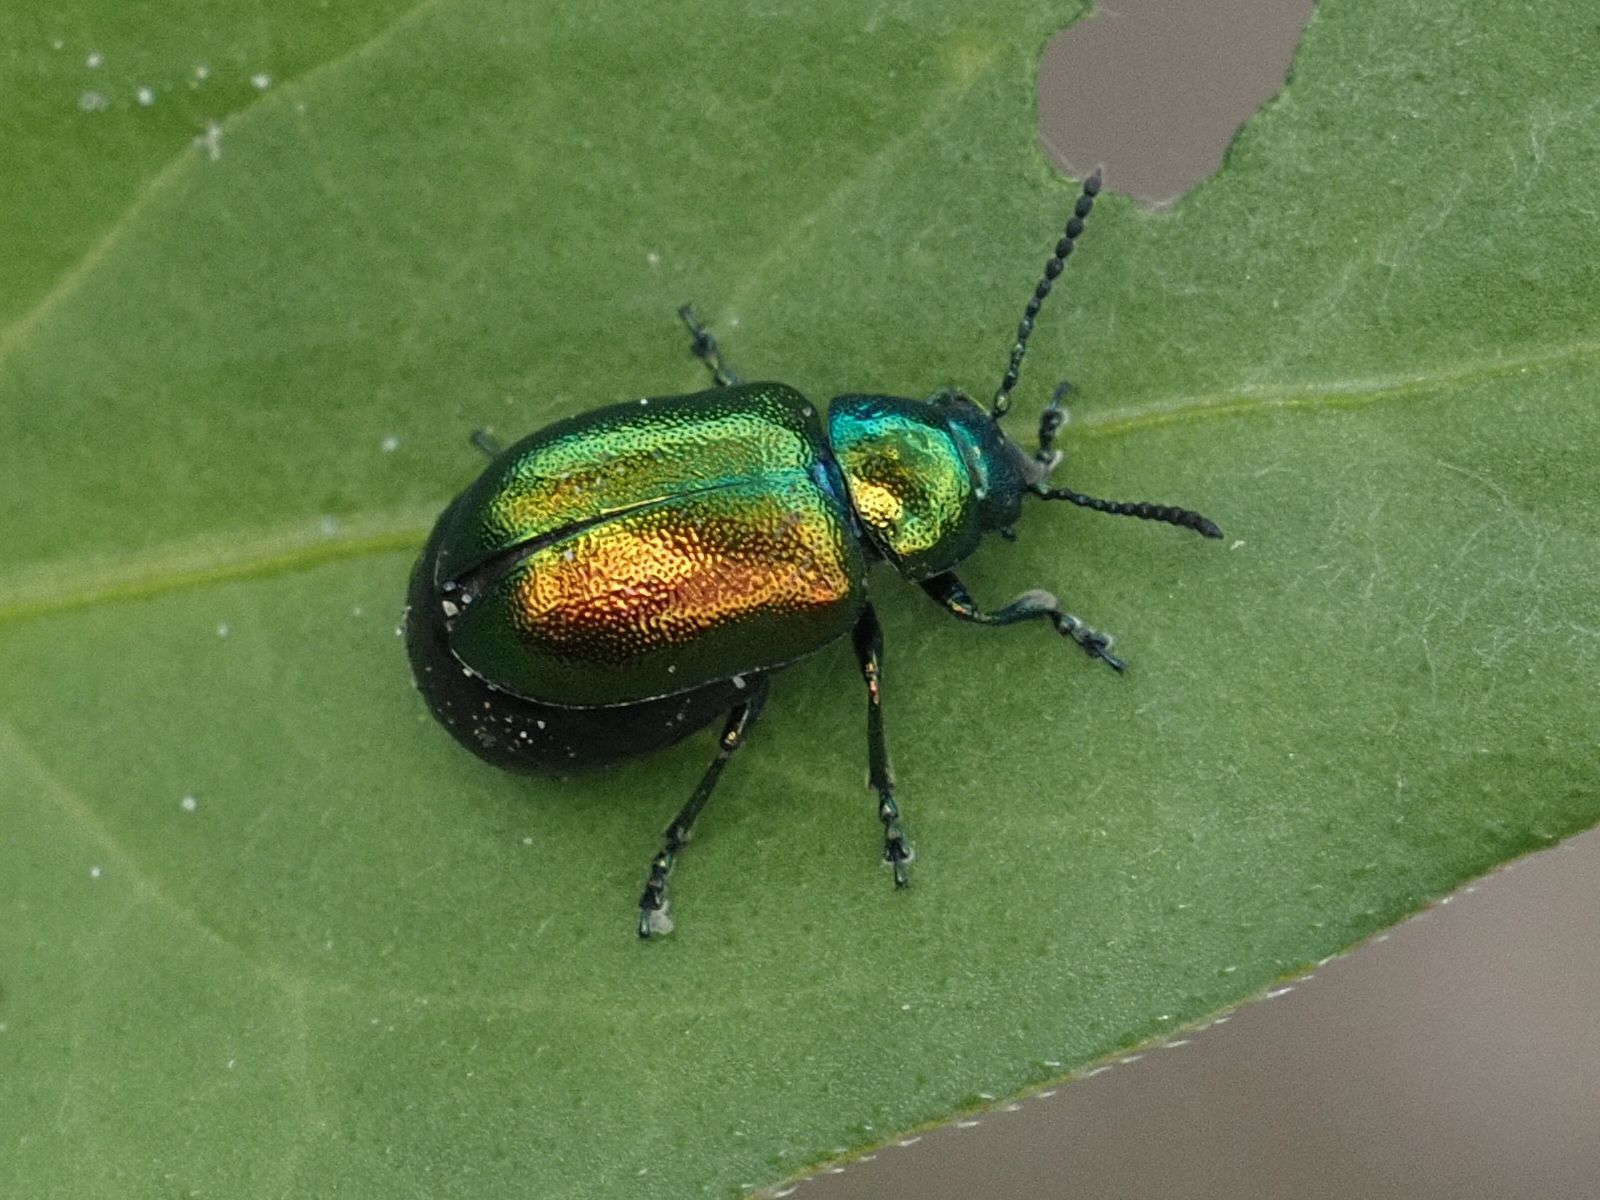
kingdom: Animalia
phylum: Arthropoda
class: Insecta
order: Coleoptera
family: Chrysomelidae
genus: Gastrophysa
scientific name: Gastrophysa viridula
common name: Green dock beetle
